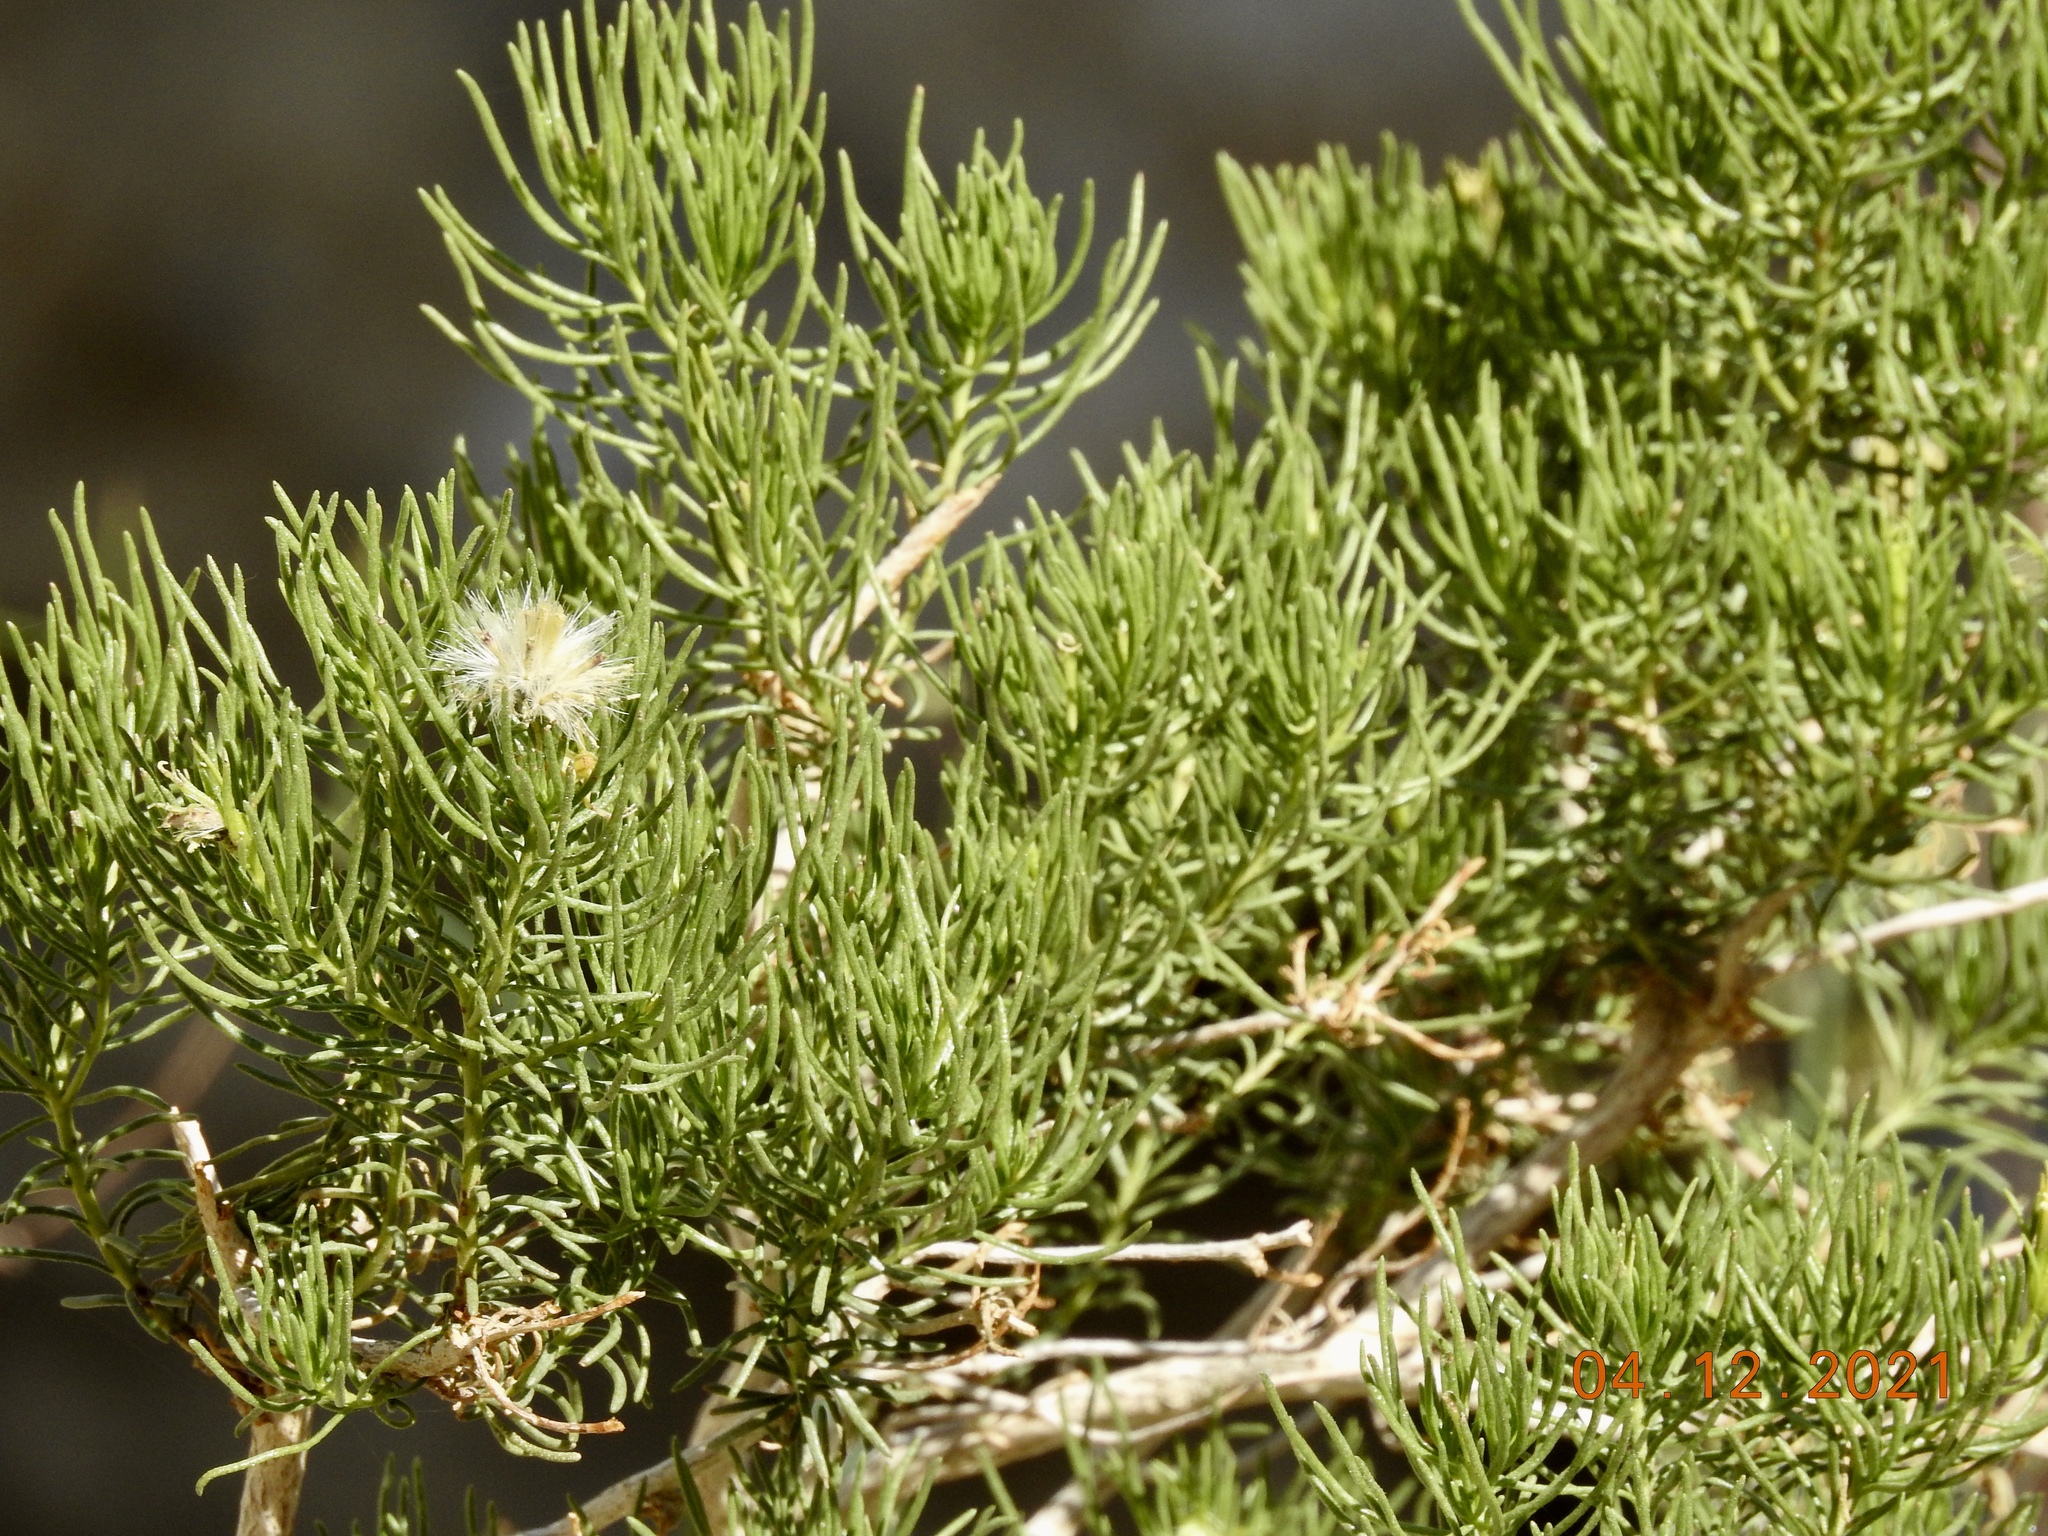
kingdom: Plantae
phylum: Tracheophyta
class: Magnoliopsida
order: Asterales
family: Asteraceae
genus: Peucephyllum
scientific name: Peucephyllum schottii
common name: Pygmy-cedar
